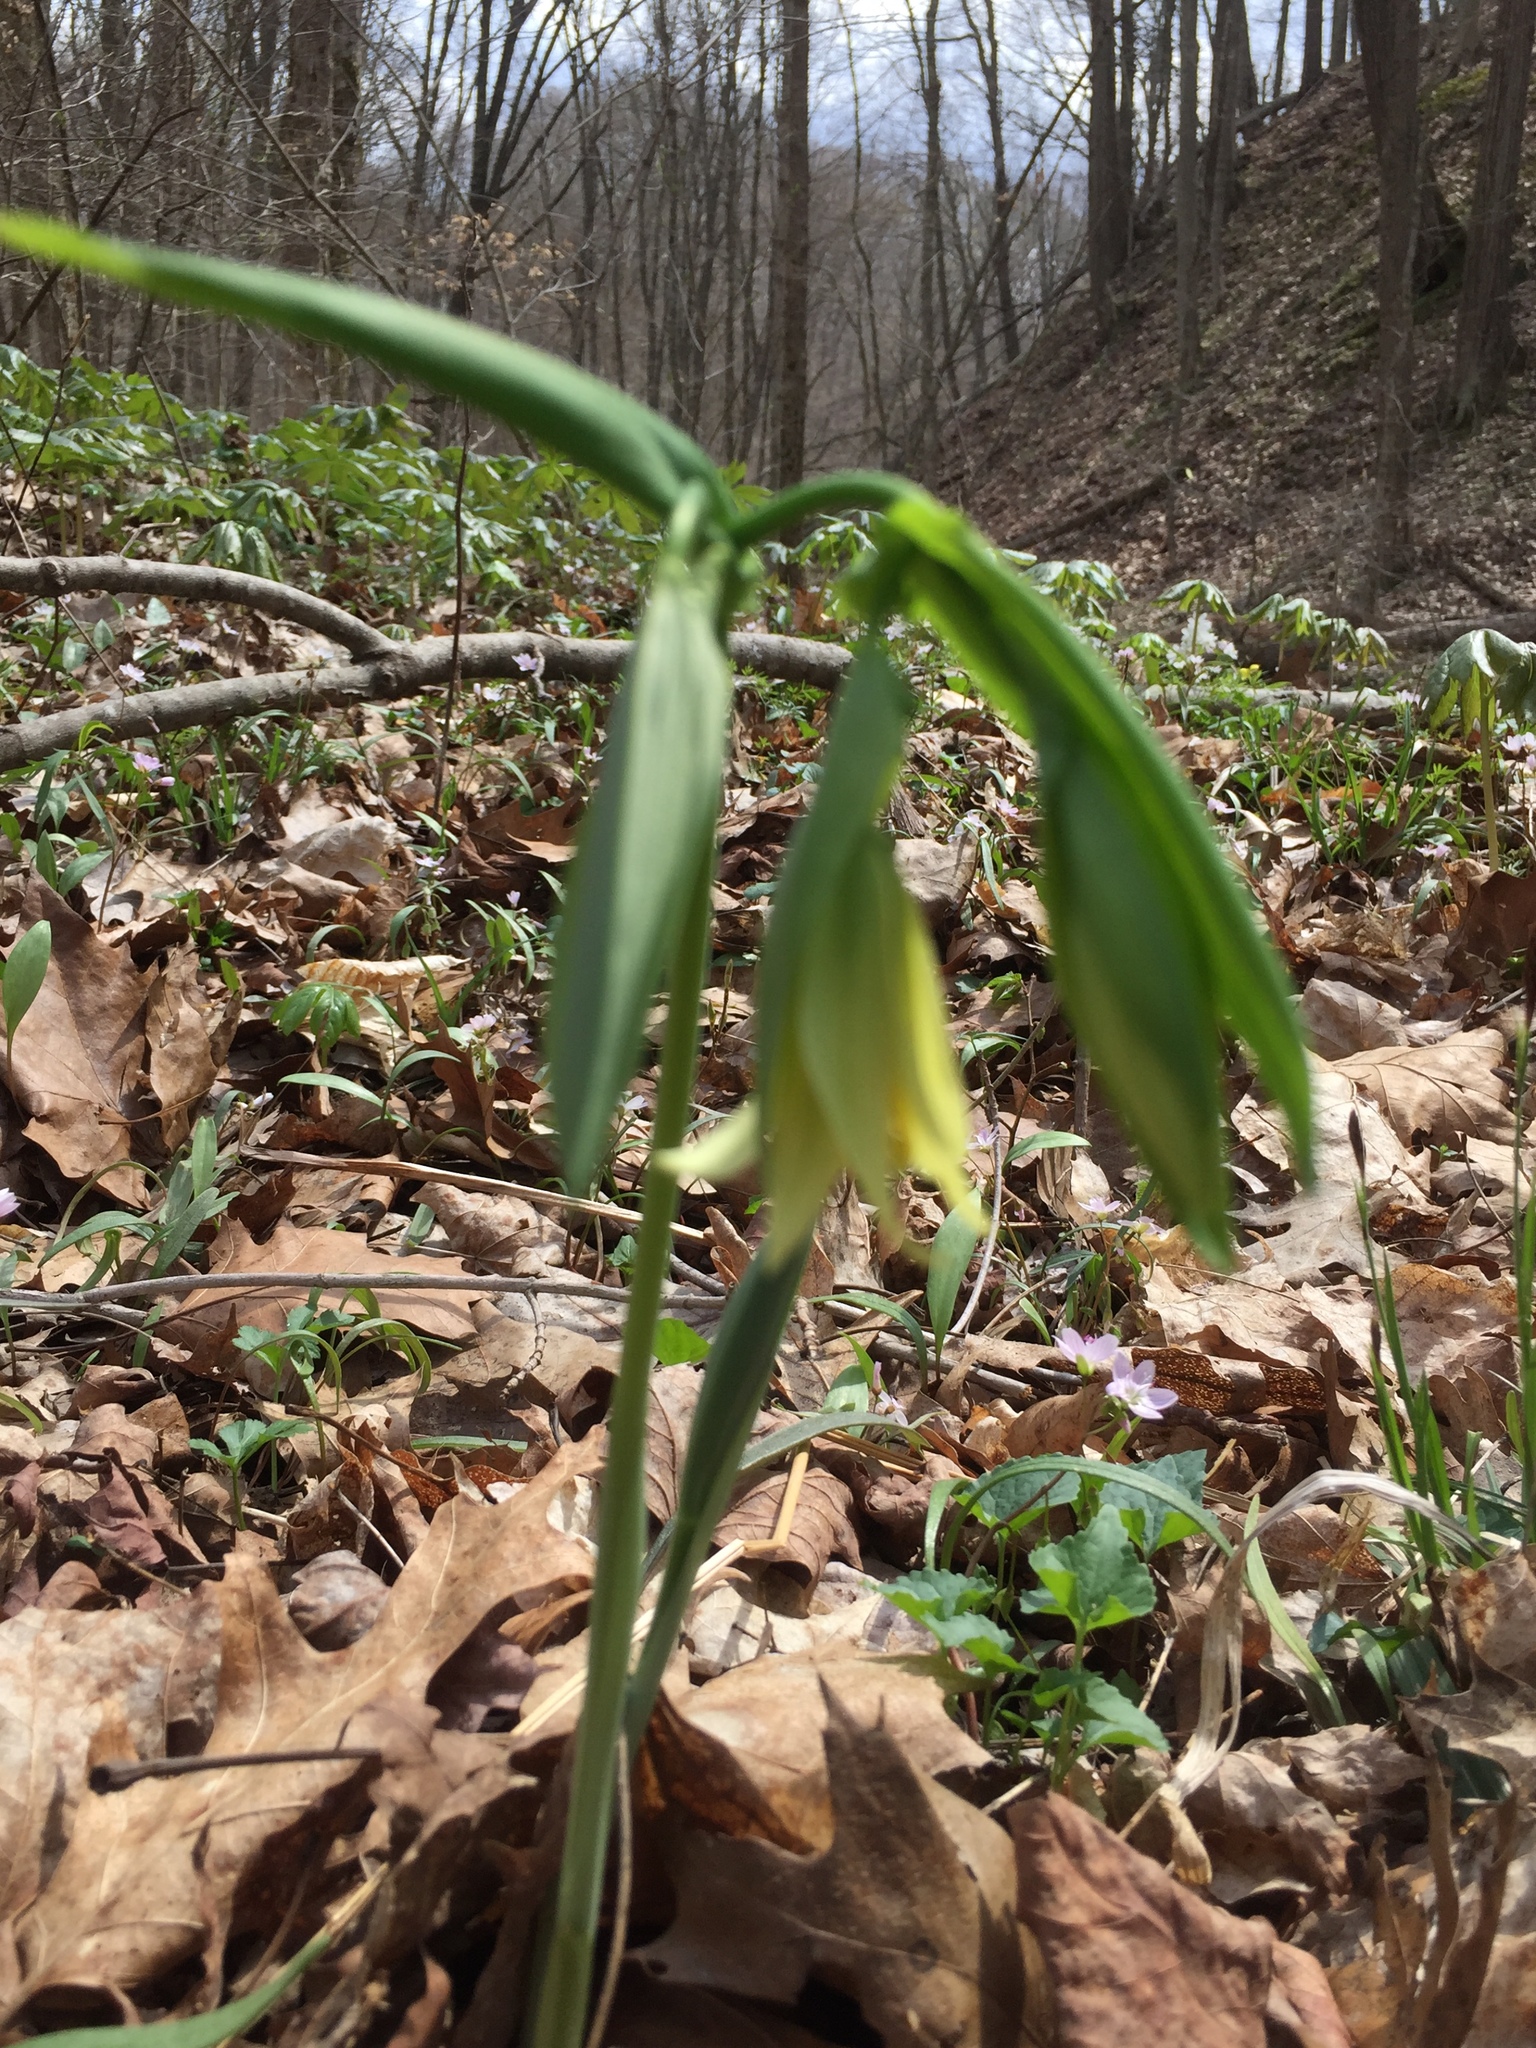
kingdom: Plantae
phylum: Tracheophyta
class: Liliopsida
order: Liliales
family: Colchicaceae
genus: Uvularia
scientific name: Uvularia grandiflora
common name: Bellwort
